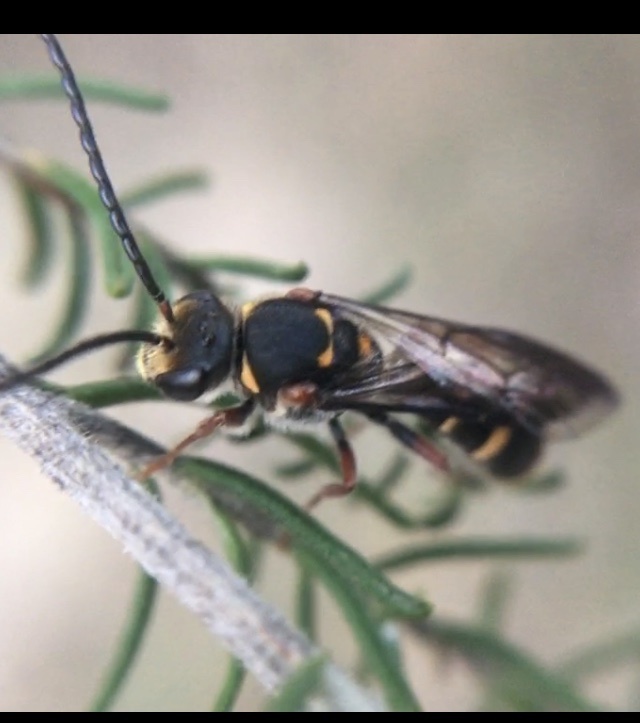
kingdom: Animalia
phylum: Arthropoda
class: Insecta
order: Hymenoptera
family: Halictidae
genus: Lasioglossum
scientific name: Lasioglossum peraustrale
